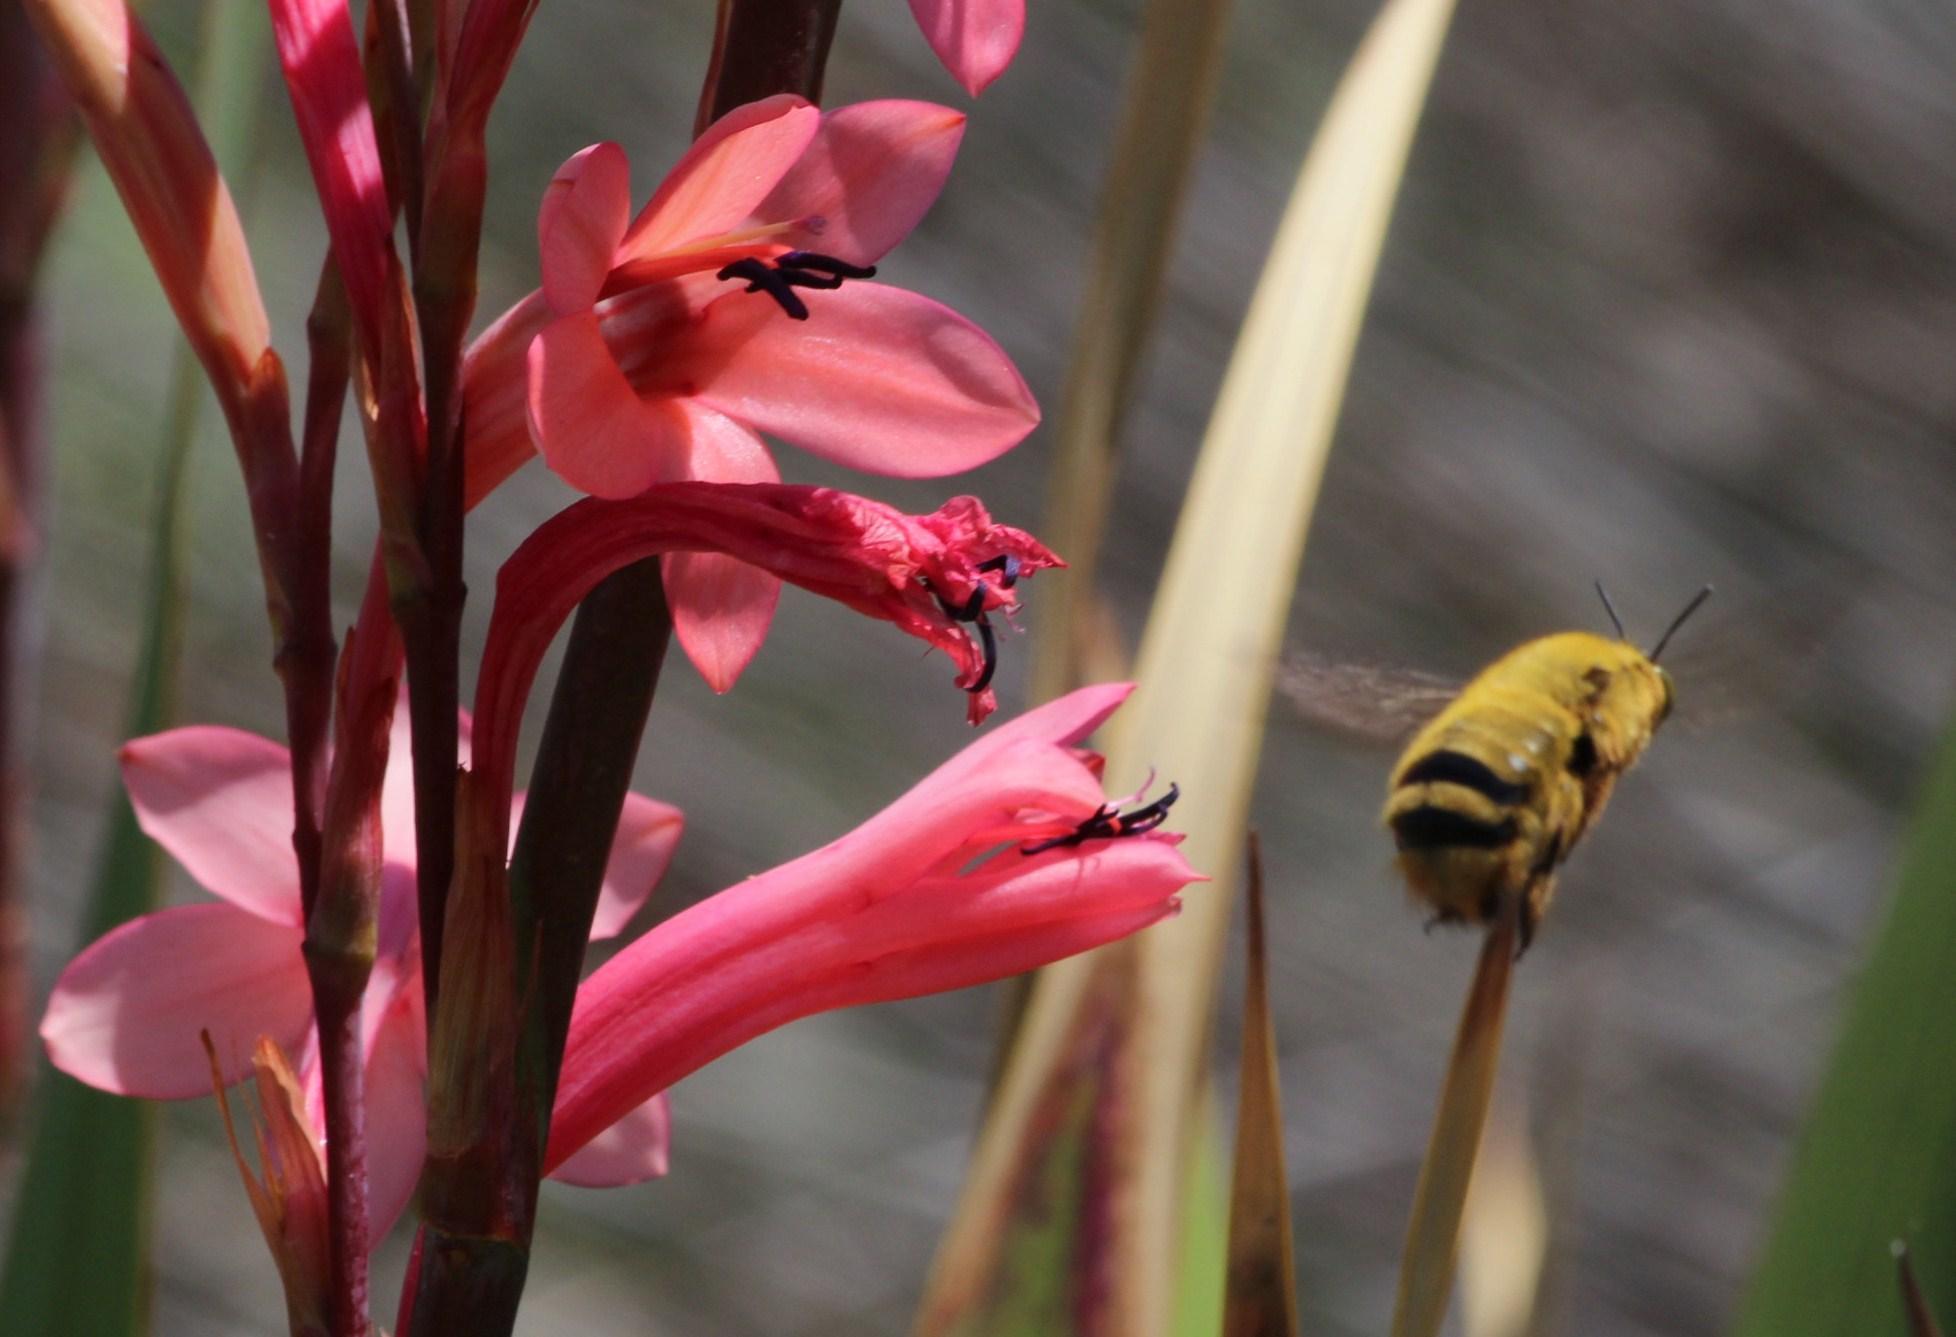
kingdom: Plantae
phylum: Tracheophyta
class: Liliopsida
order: Asparagales
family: Iridaceae
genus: Watsonia
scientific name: Watsonia meriana
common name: Bulbil bugle-lily
